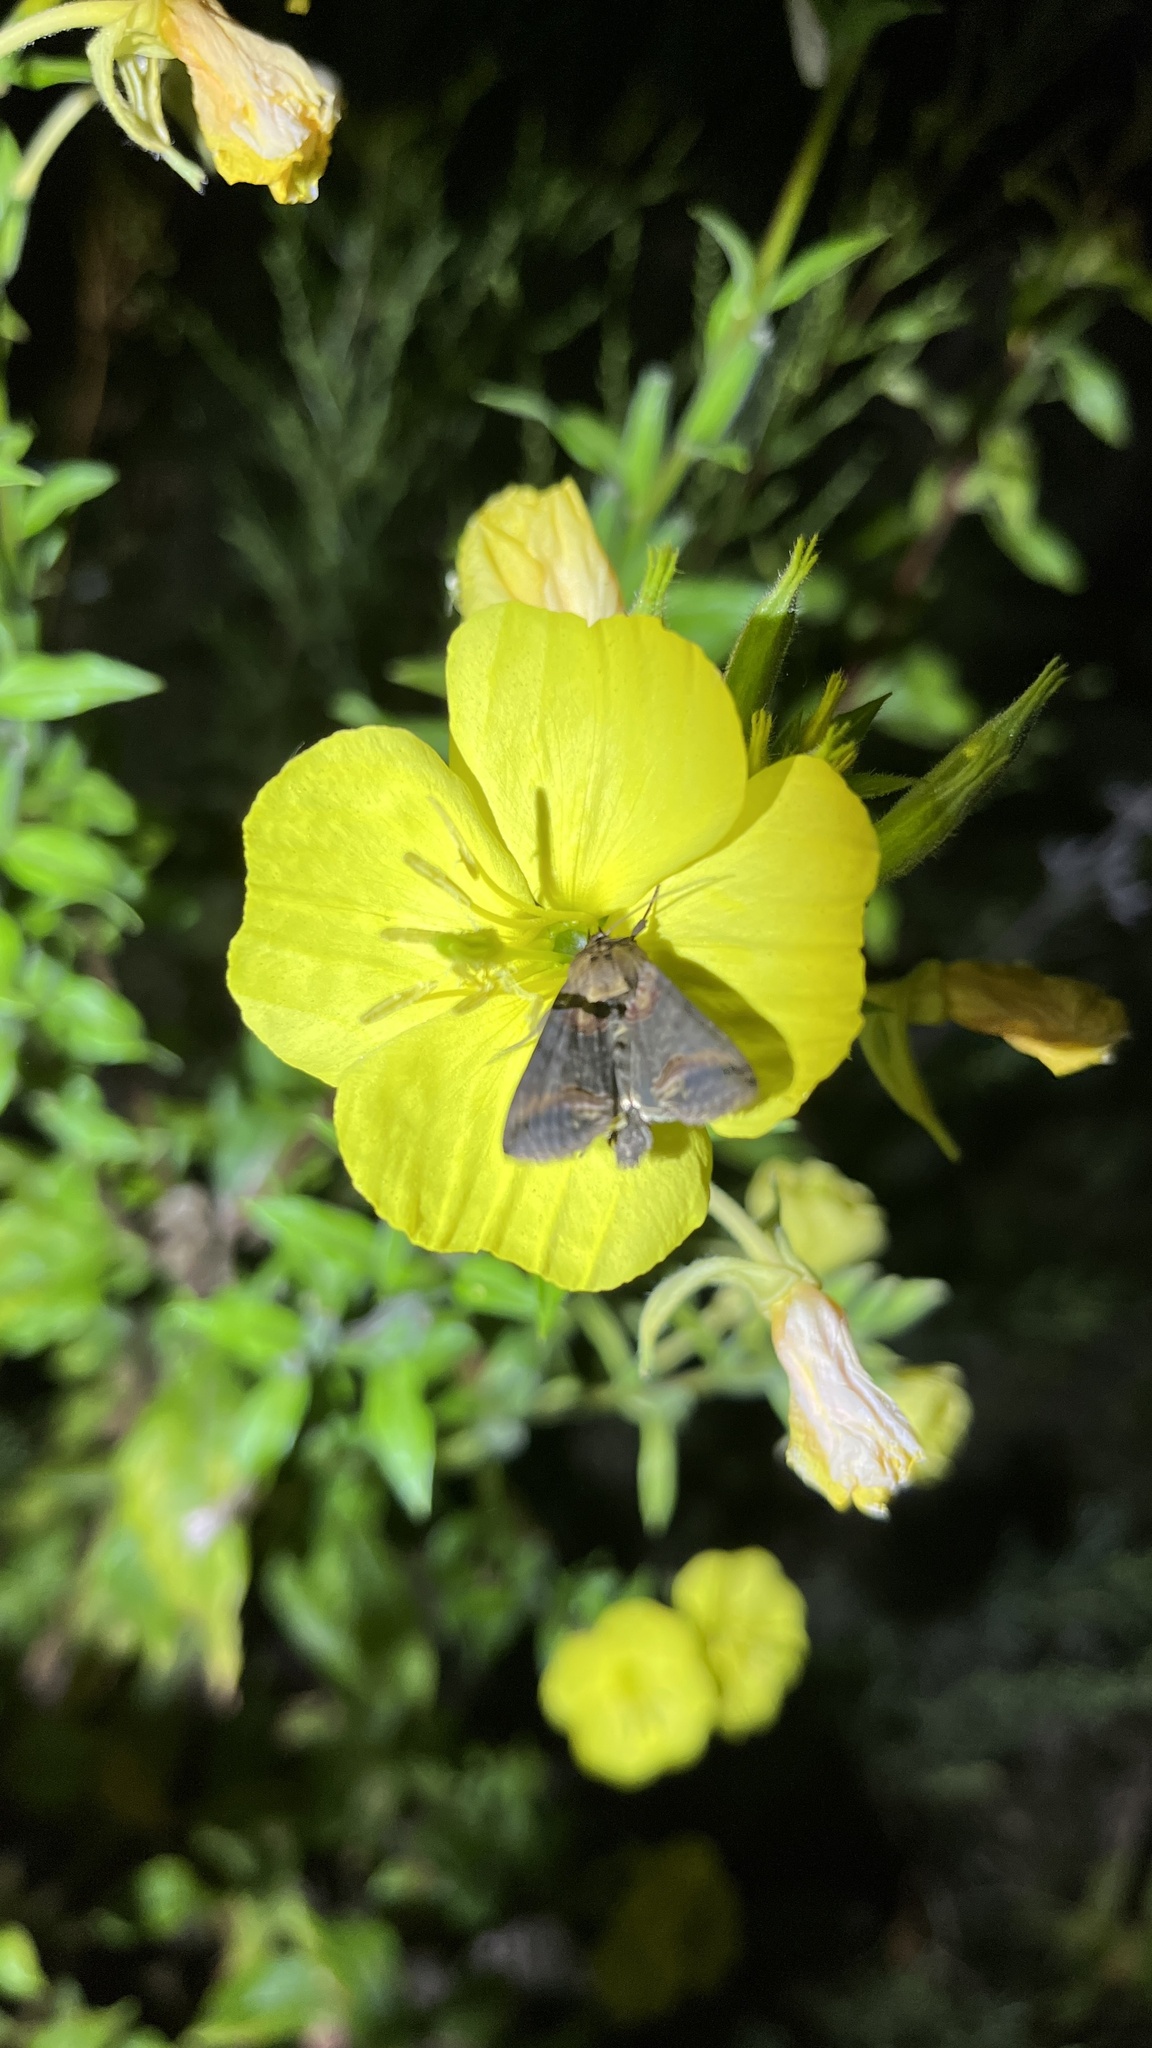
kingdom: Animalia
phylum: Arthropoda
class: Insecta
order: Lepidoptera
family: Noctuidae
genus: Abrostola
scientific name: Abrostola triplasia
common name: Dark spectacle
